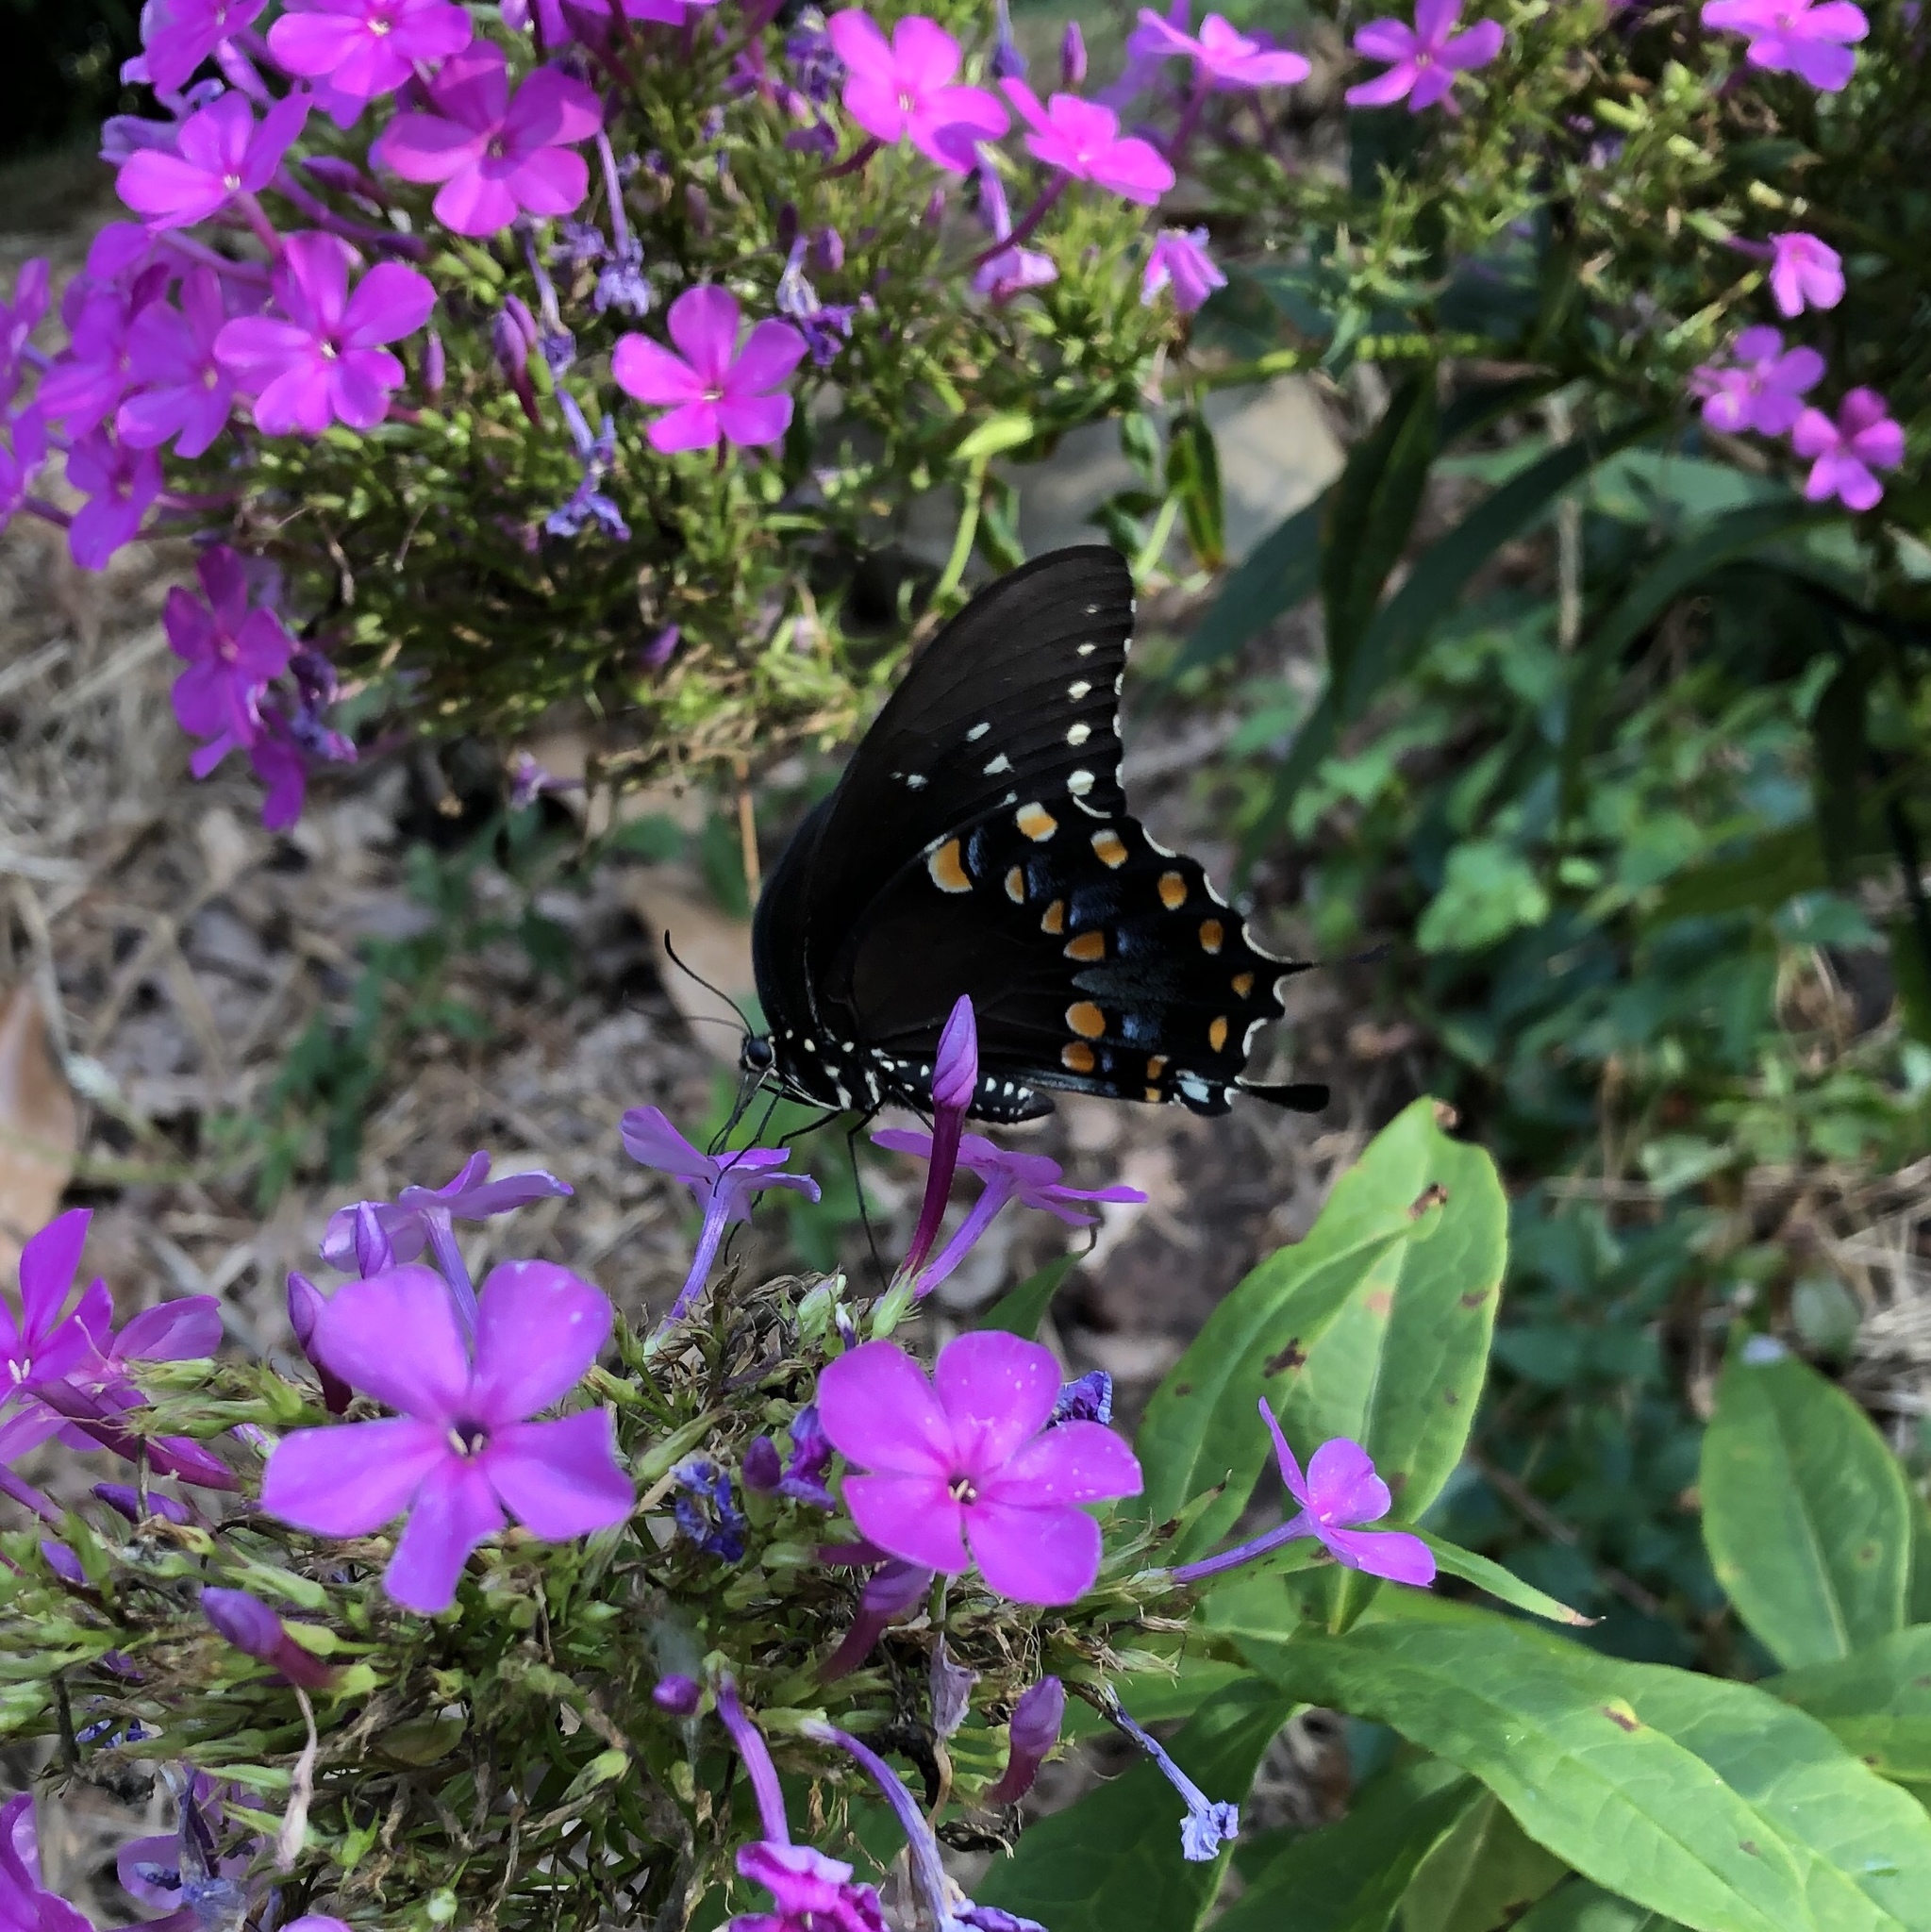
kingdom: Animalia
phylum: Arthropoda
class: Insecta
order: Lepidoptera
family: Papilionidae
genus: Papilio
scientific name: Papilio troilus
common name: Spicebush swallowtail
